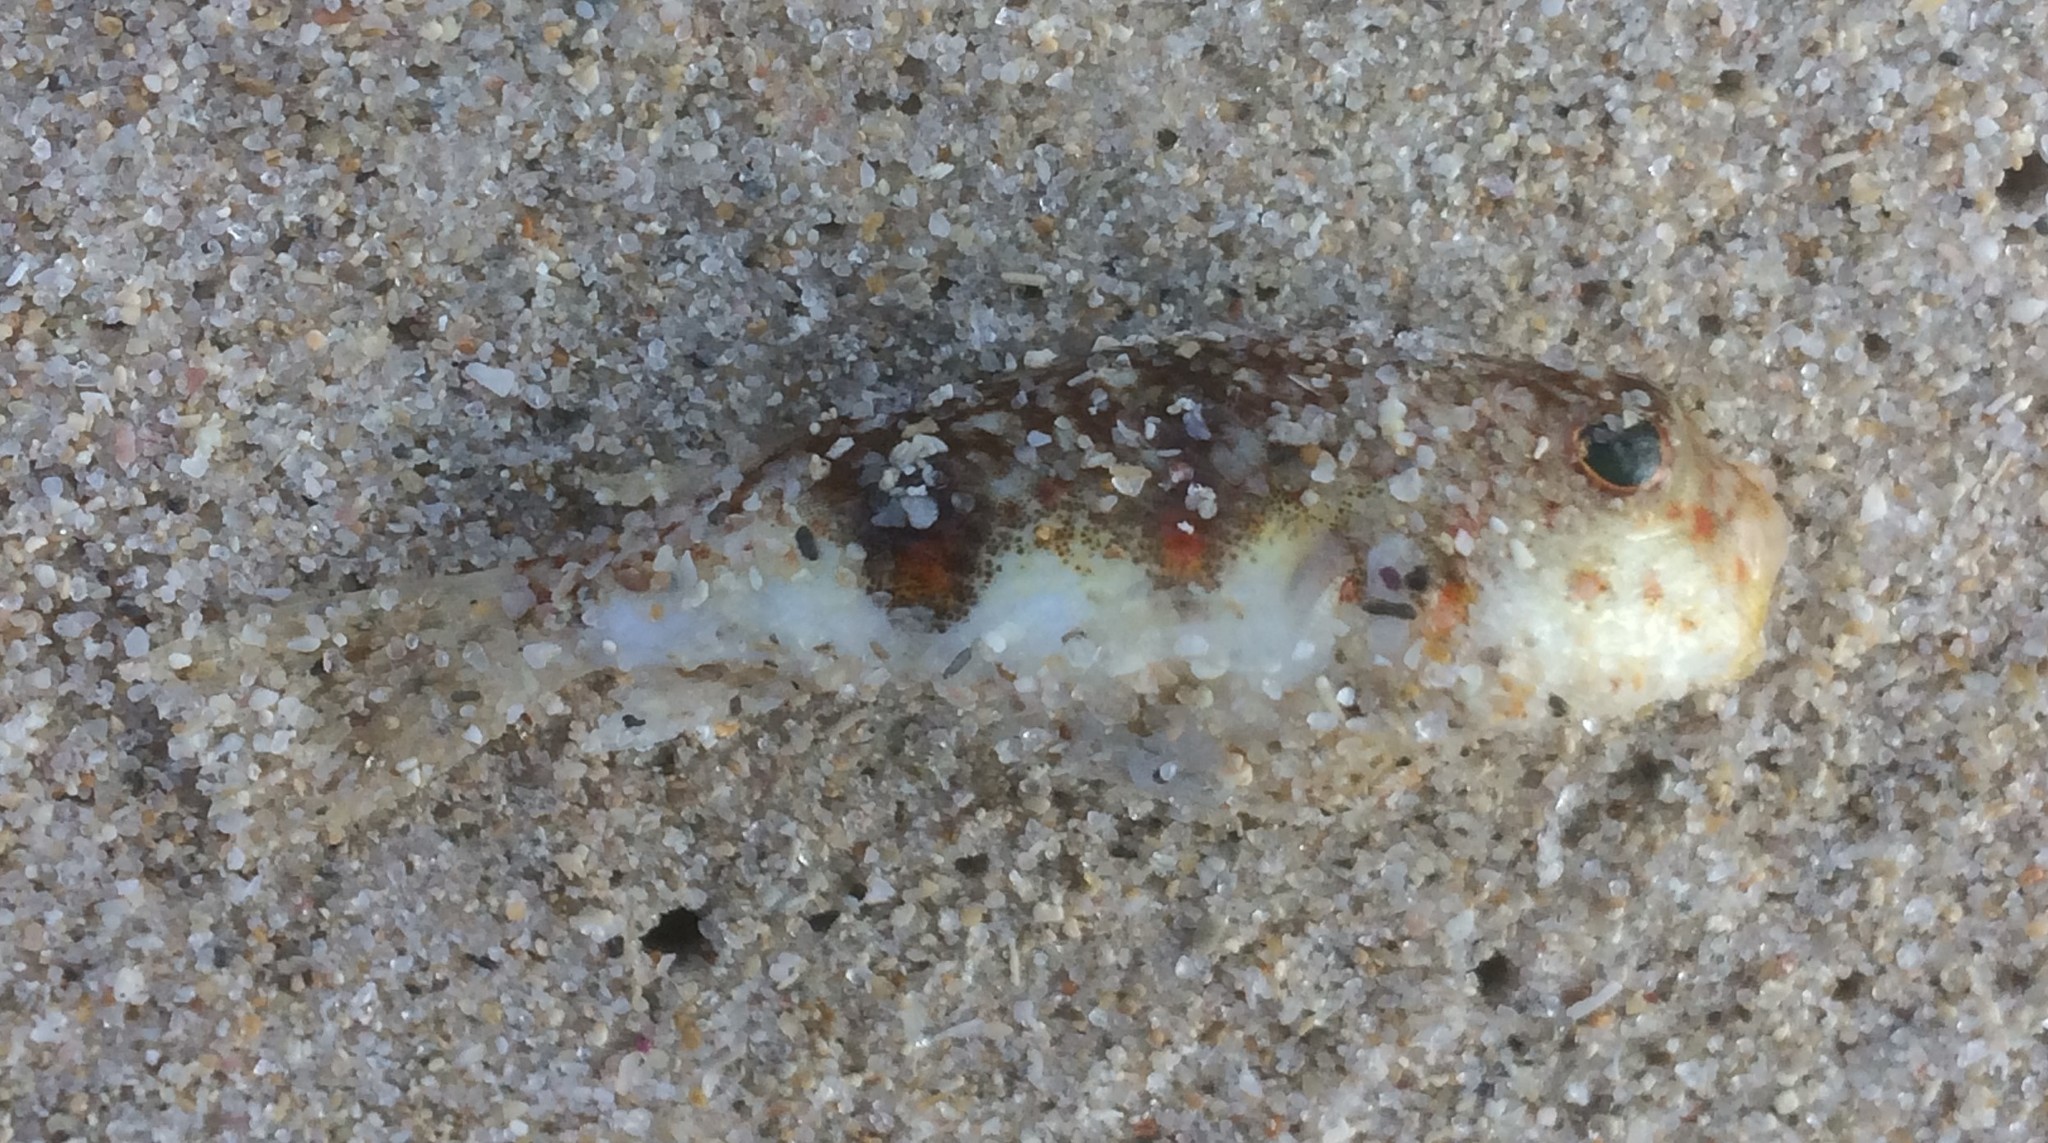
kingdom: Animalia
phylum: Chordata
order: Tetraodontiformes
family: Tetraodontidae
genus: Polyspina
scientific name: Polyspina piosae
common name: Orange-barred pufferfish
